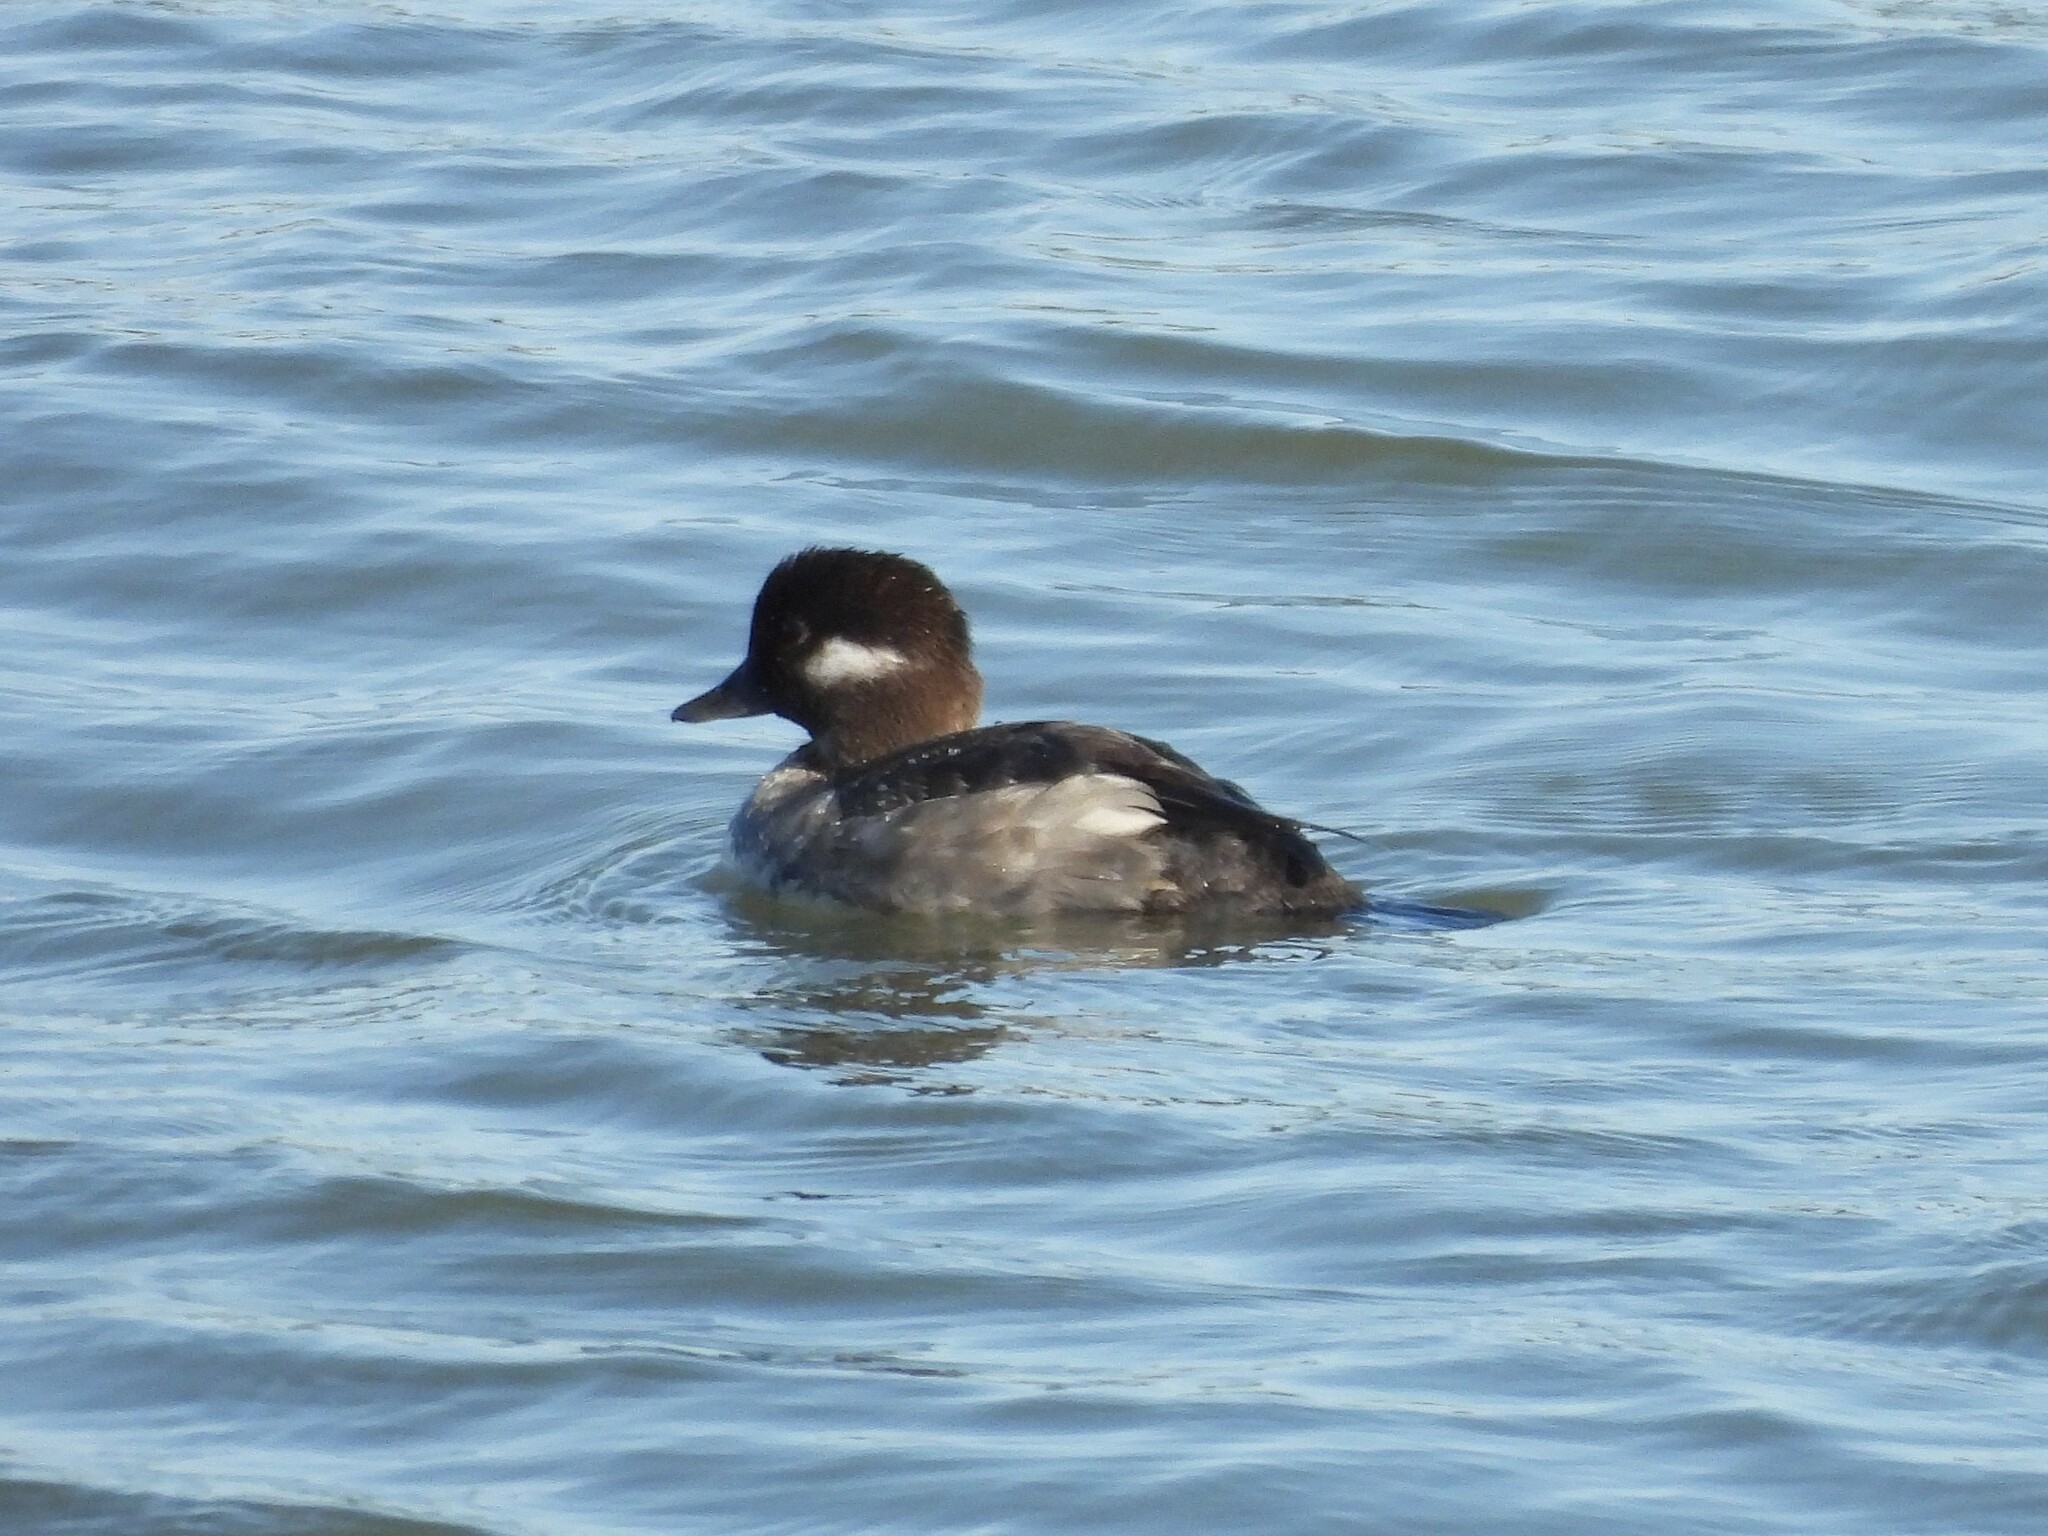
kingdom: Animalia
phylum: Chordata
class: Aves
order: Anseriformes
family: Anatidae
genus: Bucephala
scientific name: Bucephala albeola
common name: Bufflehead
